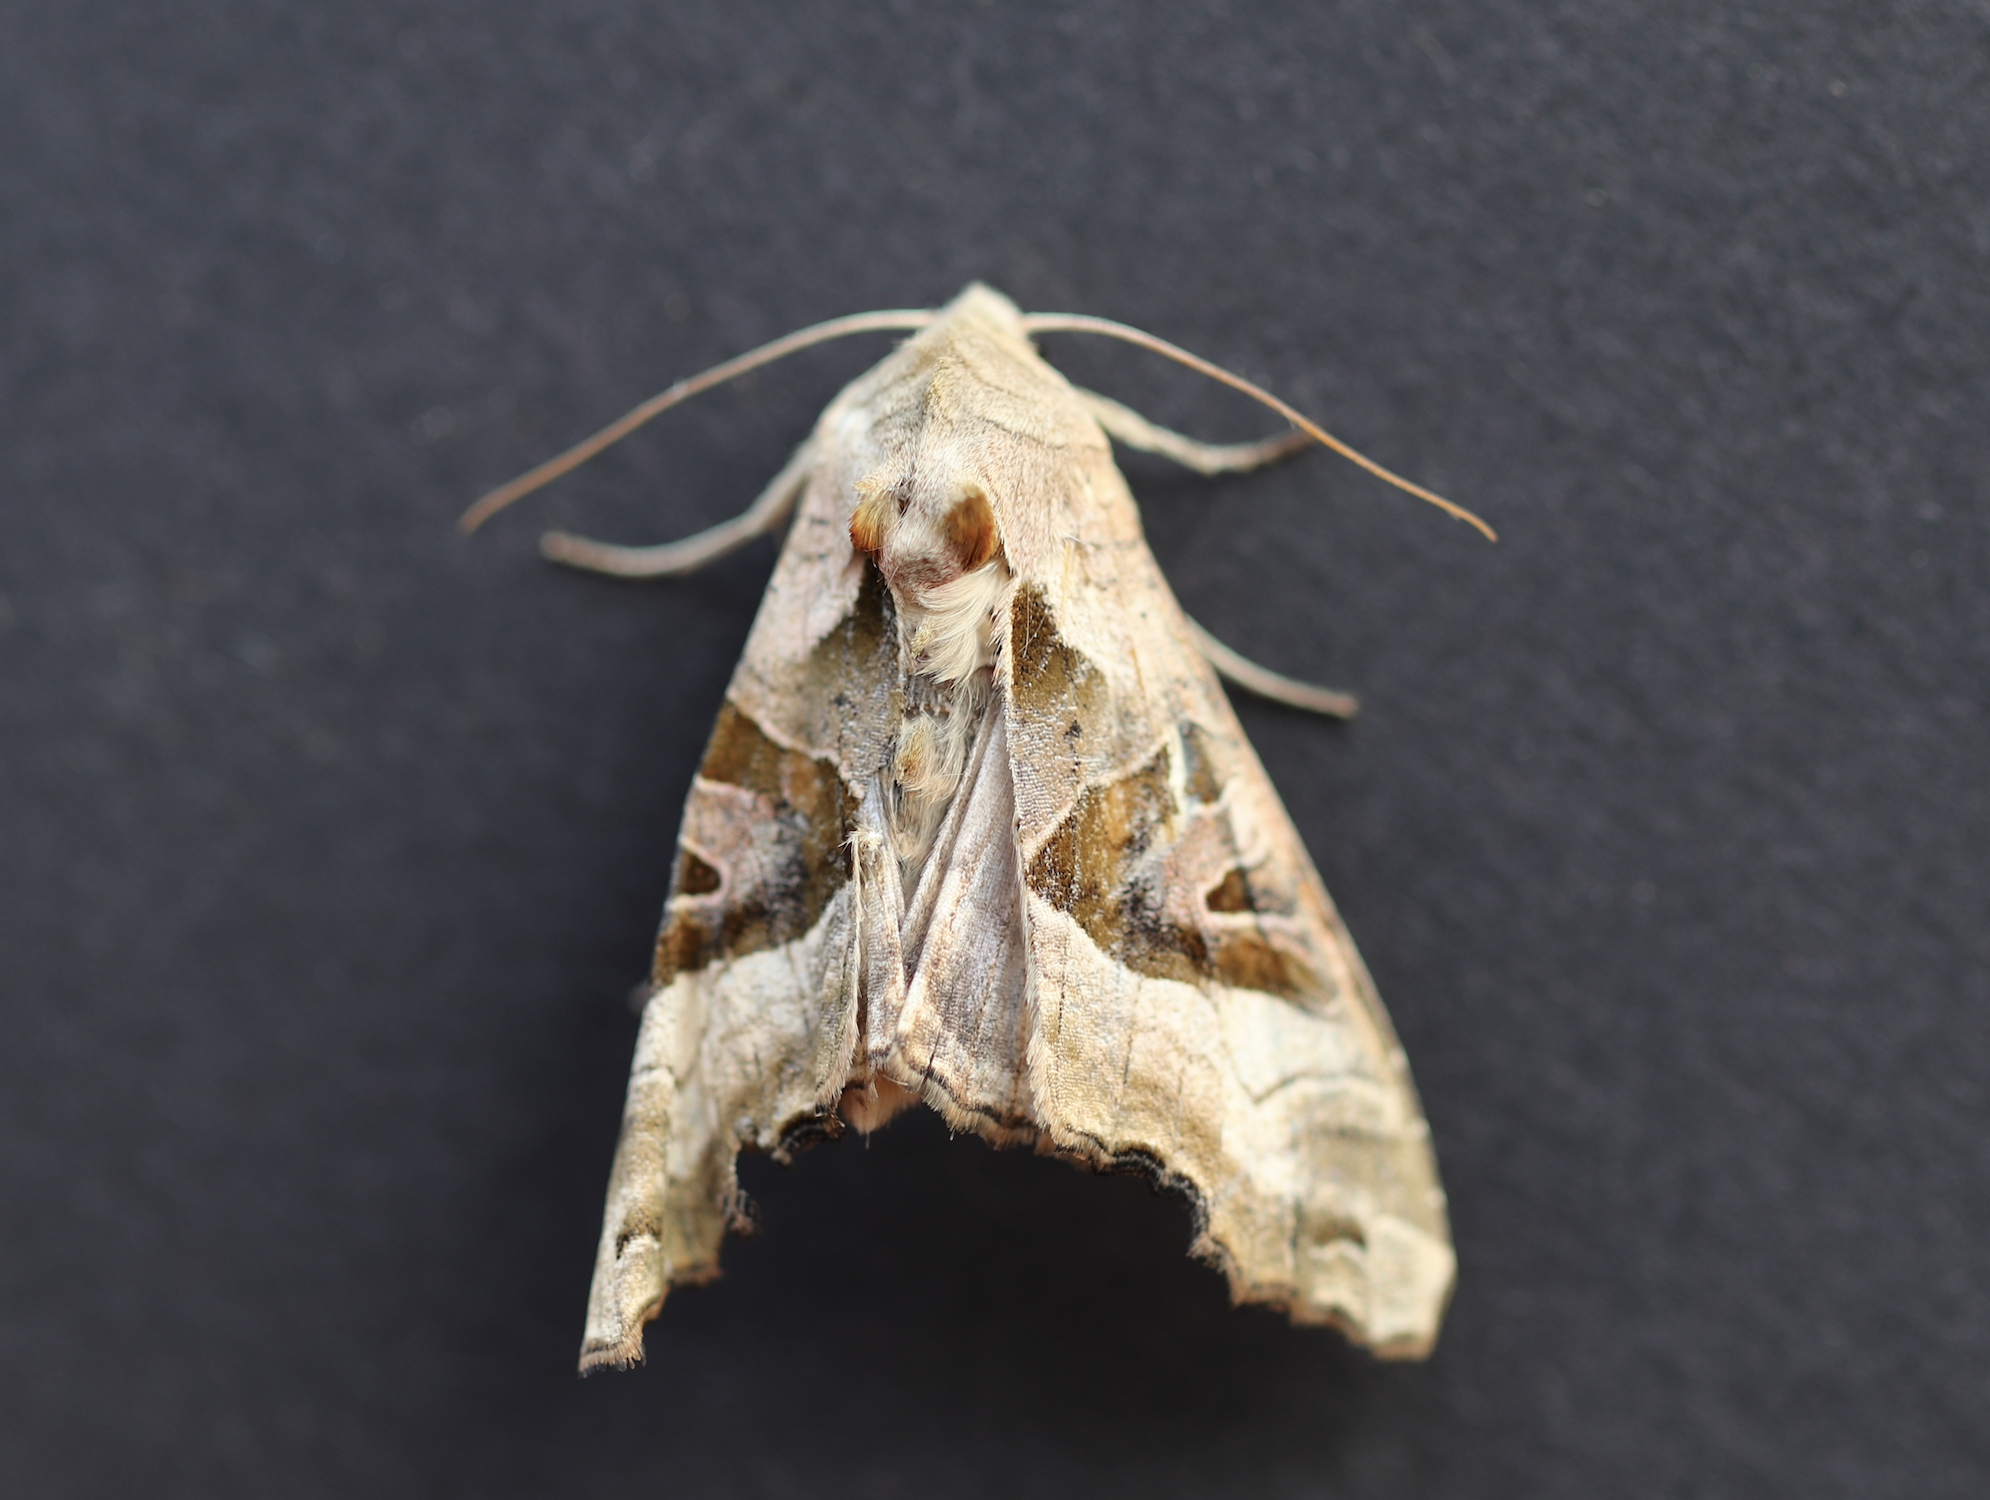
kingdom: Animalia
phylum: Arthropoda
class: Insecta
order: Lepidoptera
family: Noctuidae
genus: Phlogophora
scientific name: Phlogophora meticulosa
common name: Angle shades
